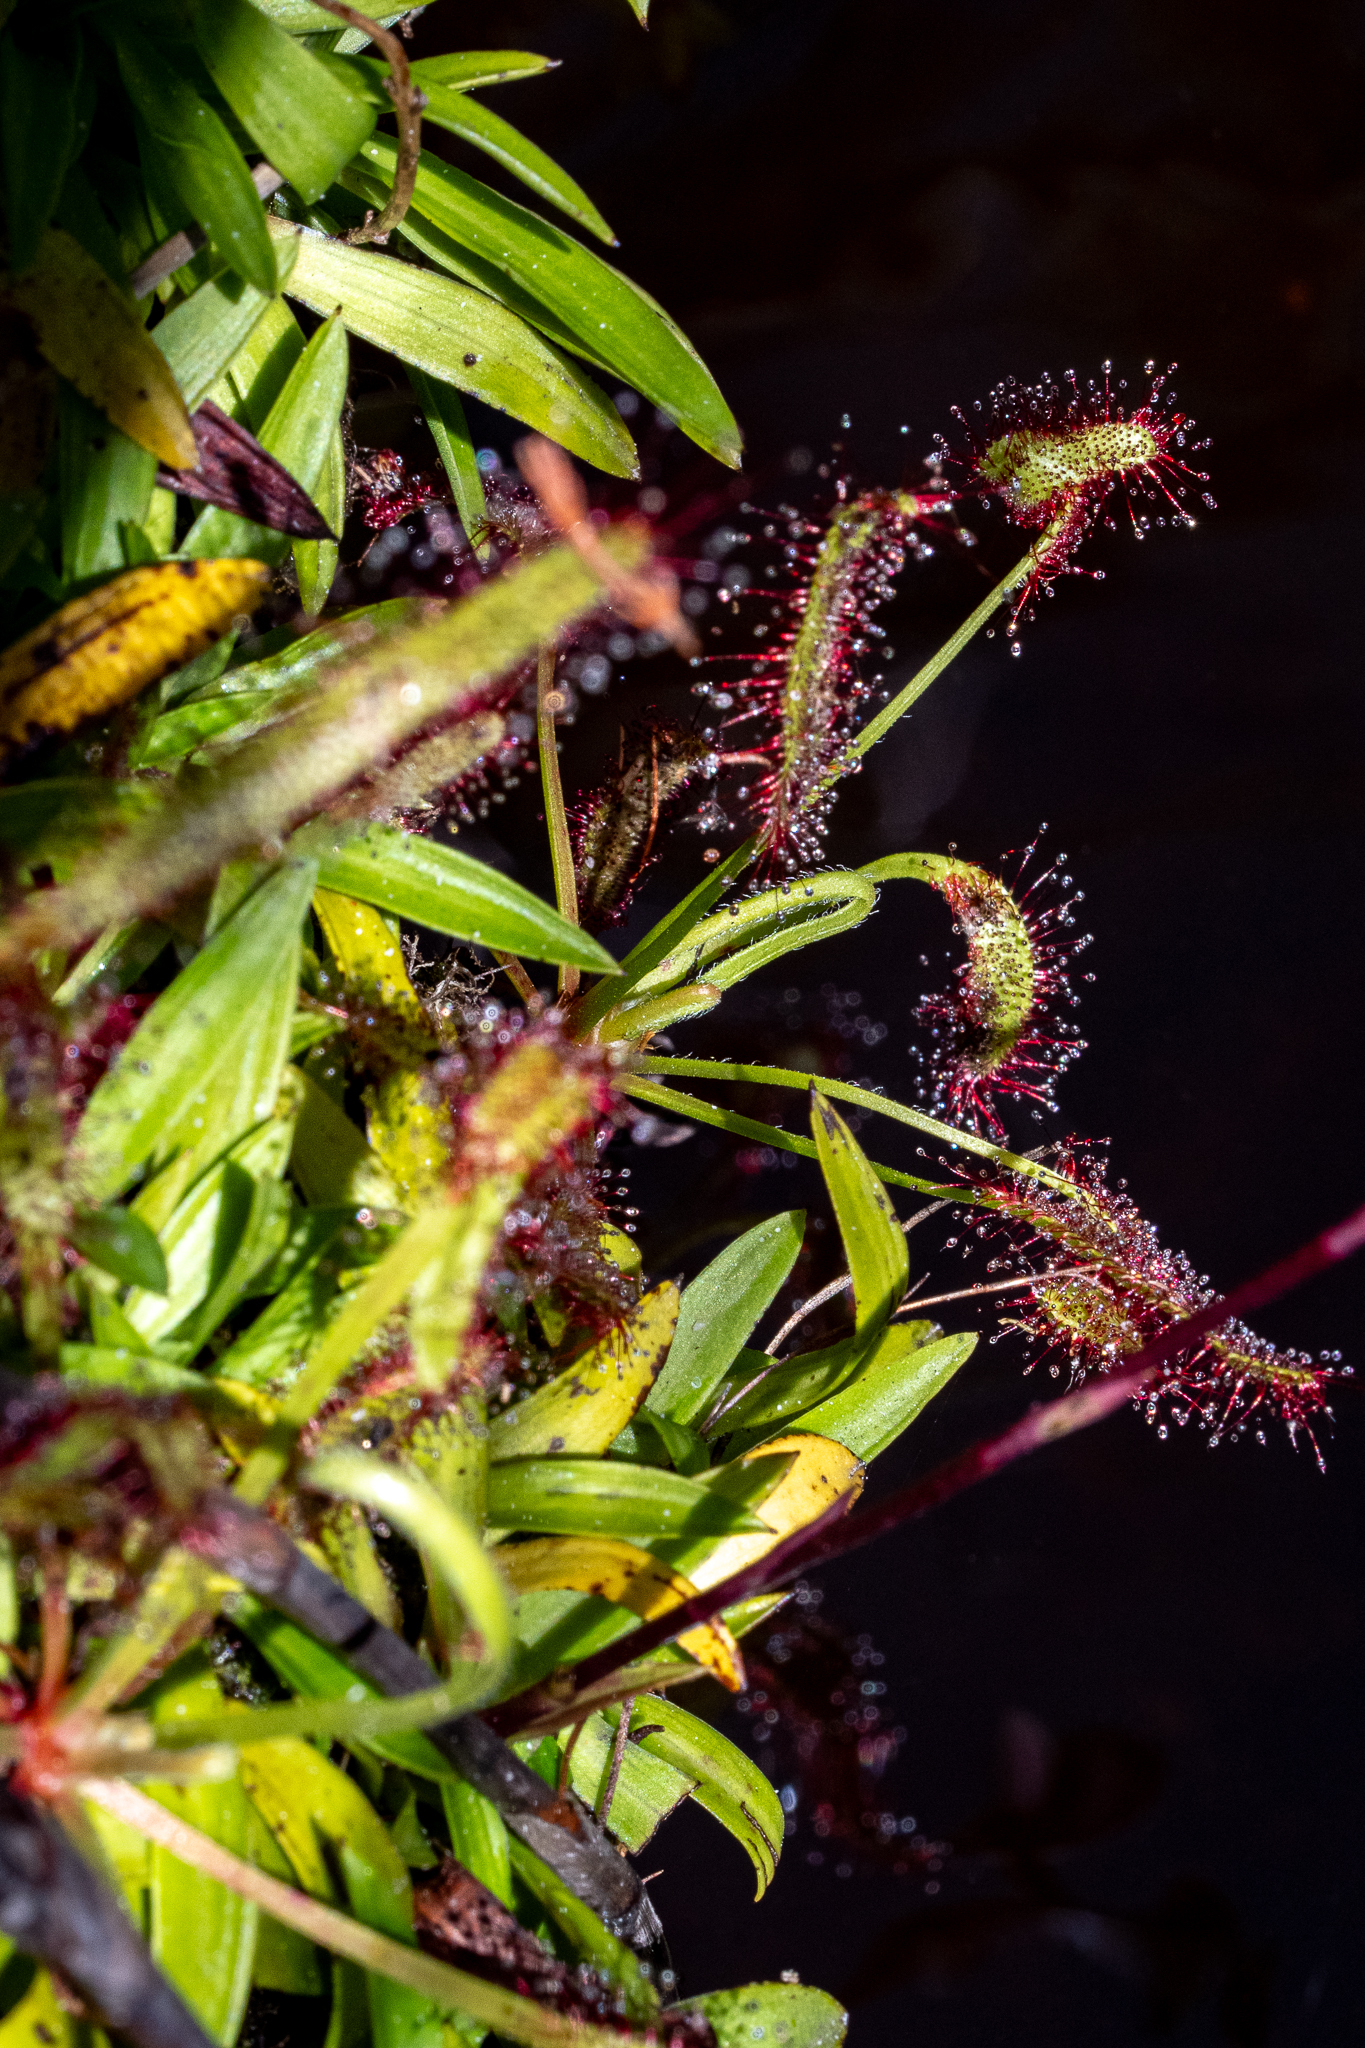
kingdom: Plantae
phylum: Tracheophyta
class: Magnoliopsida
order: Caryophyllales
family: Droseraceae
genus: Drosera
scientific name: Drosera capensis
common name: Cape sundew
